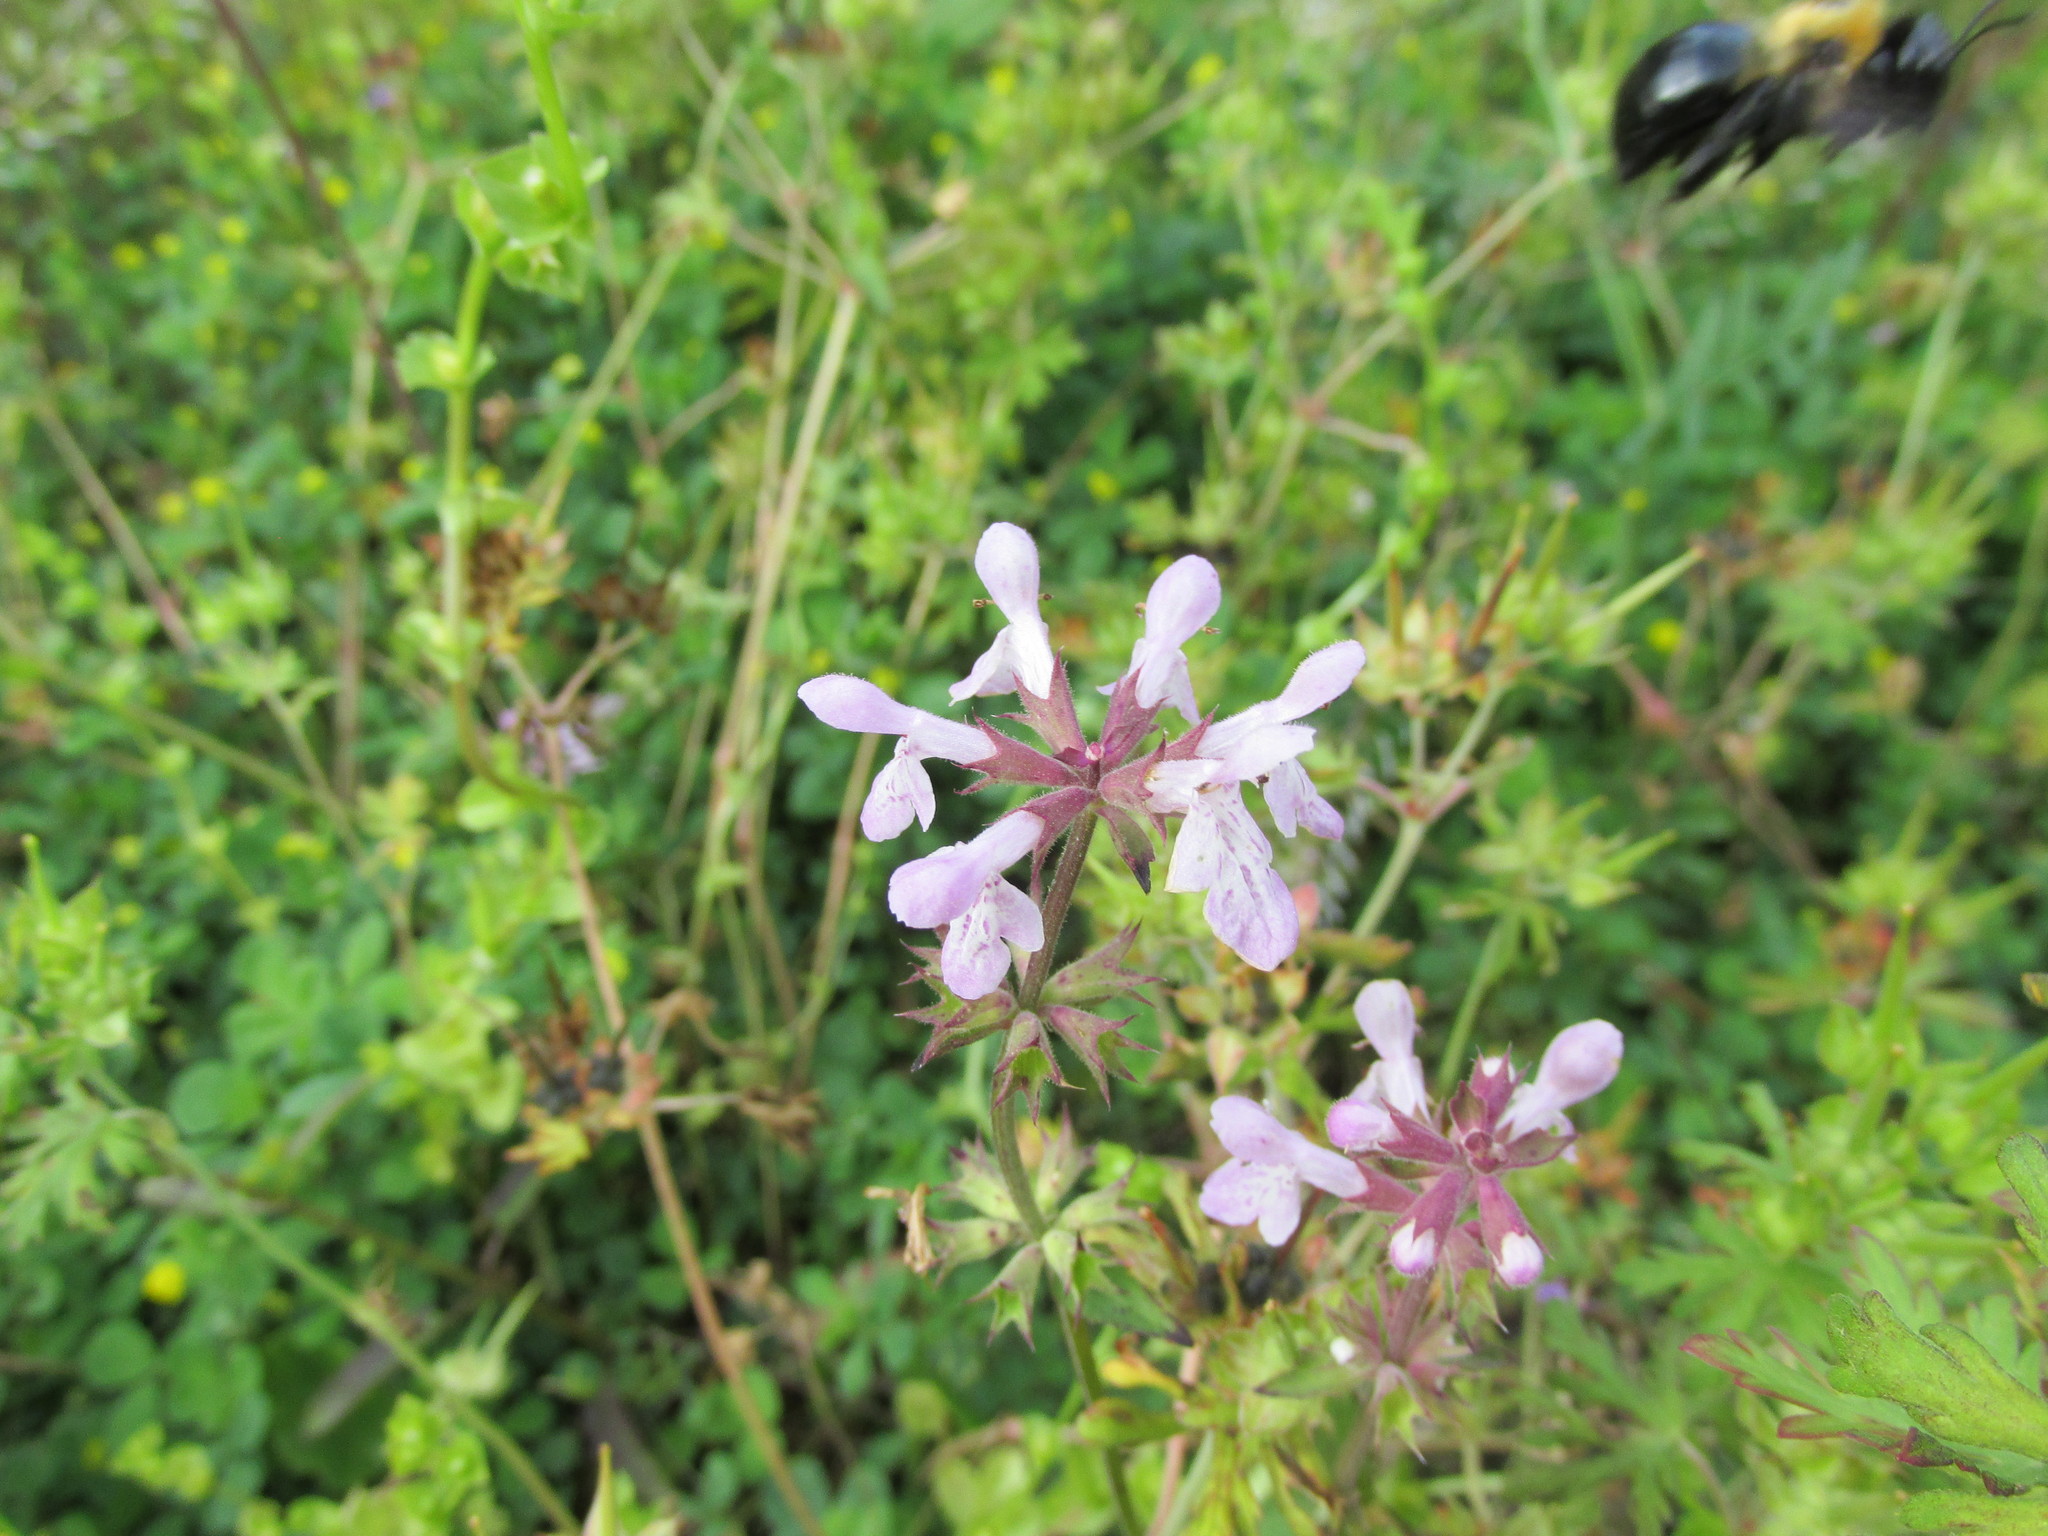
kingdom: Animalia
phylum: Arthropoda
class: Insecta
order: Hymenoptera
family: Apidae
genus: Xylocopa
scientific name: Xylocopa virginica
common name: Carpenter bee
